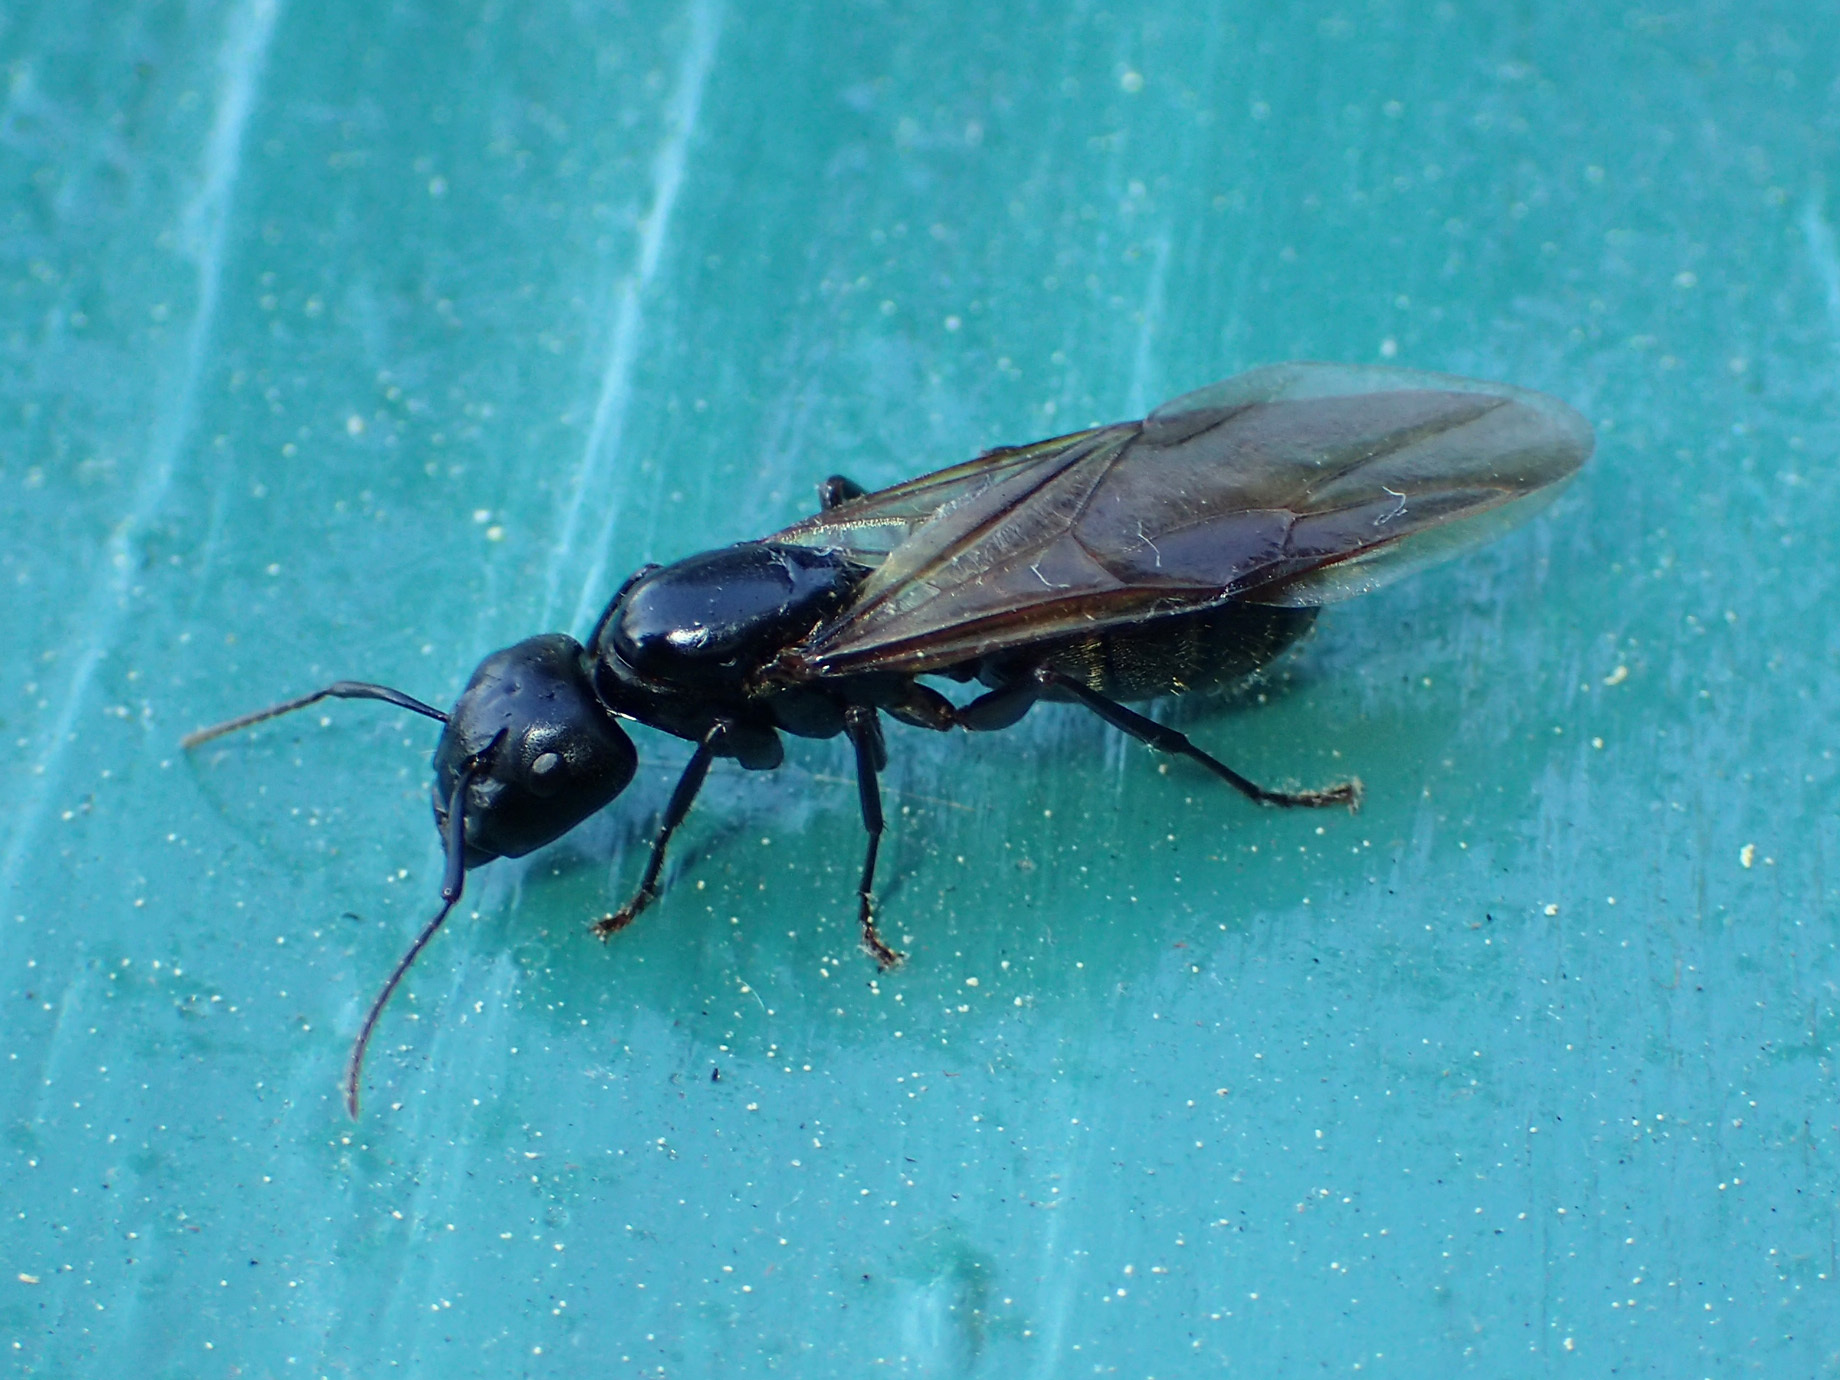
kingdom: Animalia
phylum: Arthropoda
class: Insecta
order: Hymenoptera
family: Formicidae
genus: Camponotus
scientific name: Camponotus pennsylvanicus
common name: Black carpenter ant
